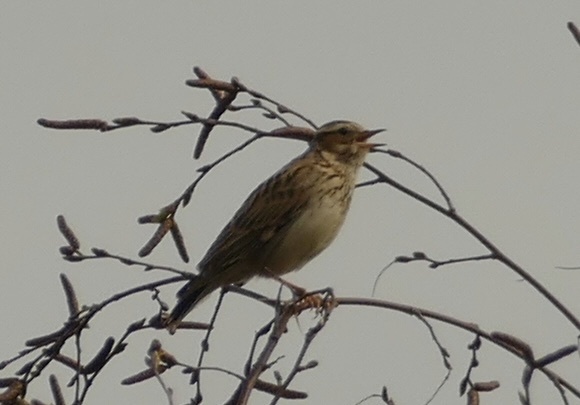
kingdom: Animalia
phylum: Chordata
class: Aves
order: Passeriformes
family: Alaudidae
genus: Lullula
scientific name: Lullula arborea
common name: Woodlark
